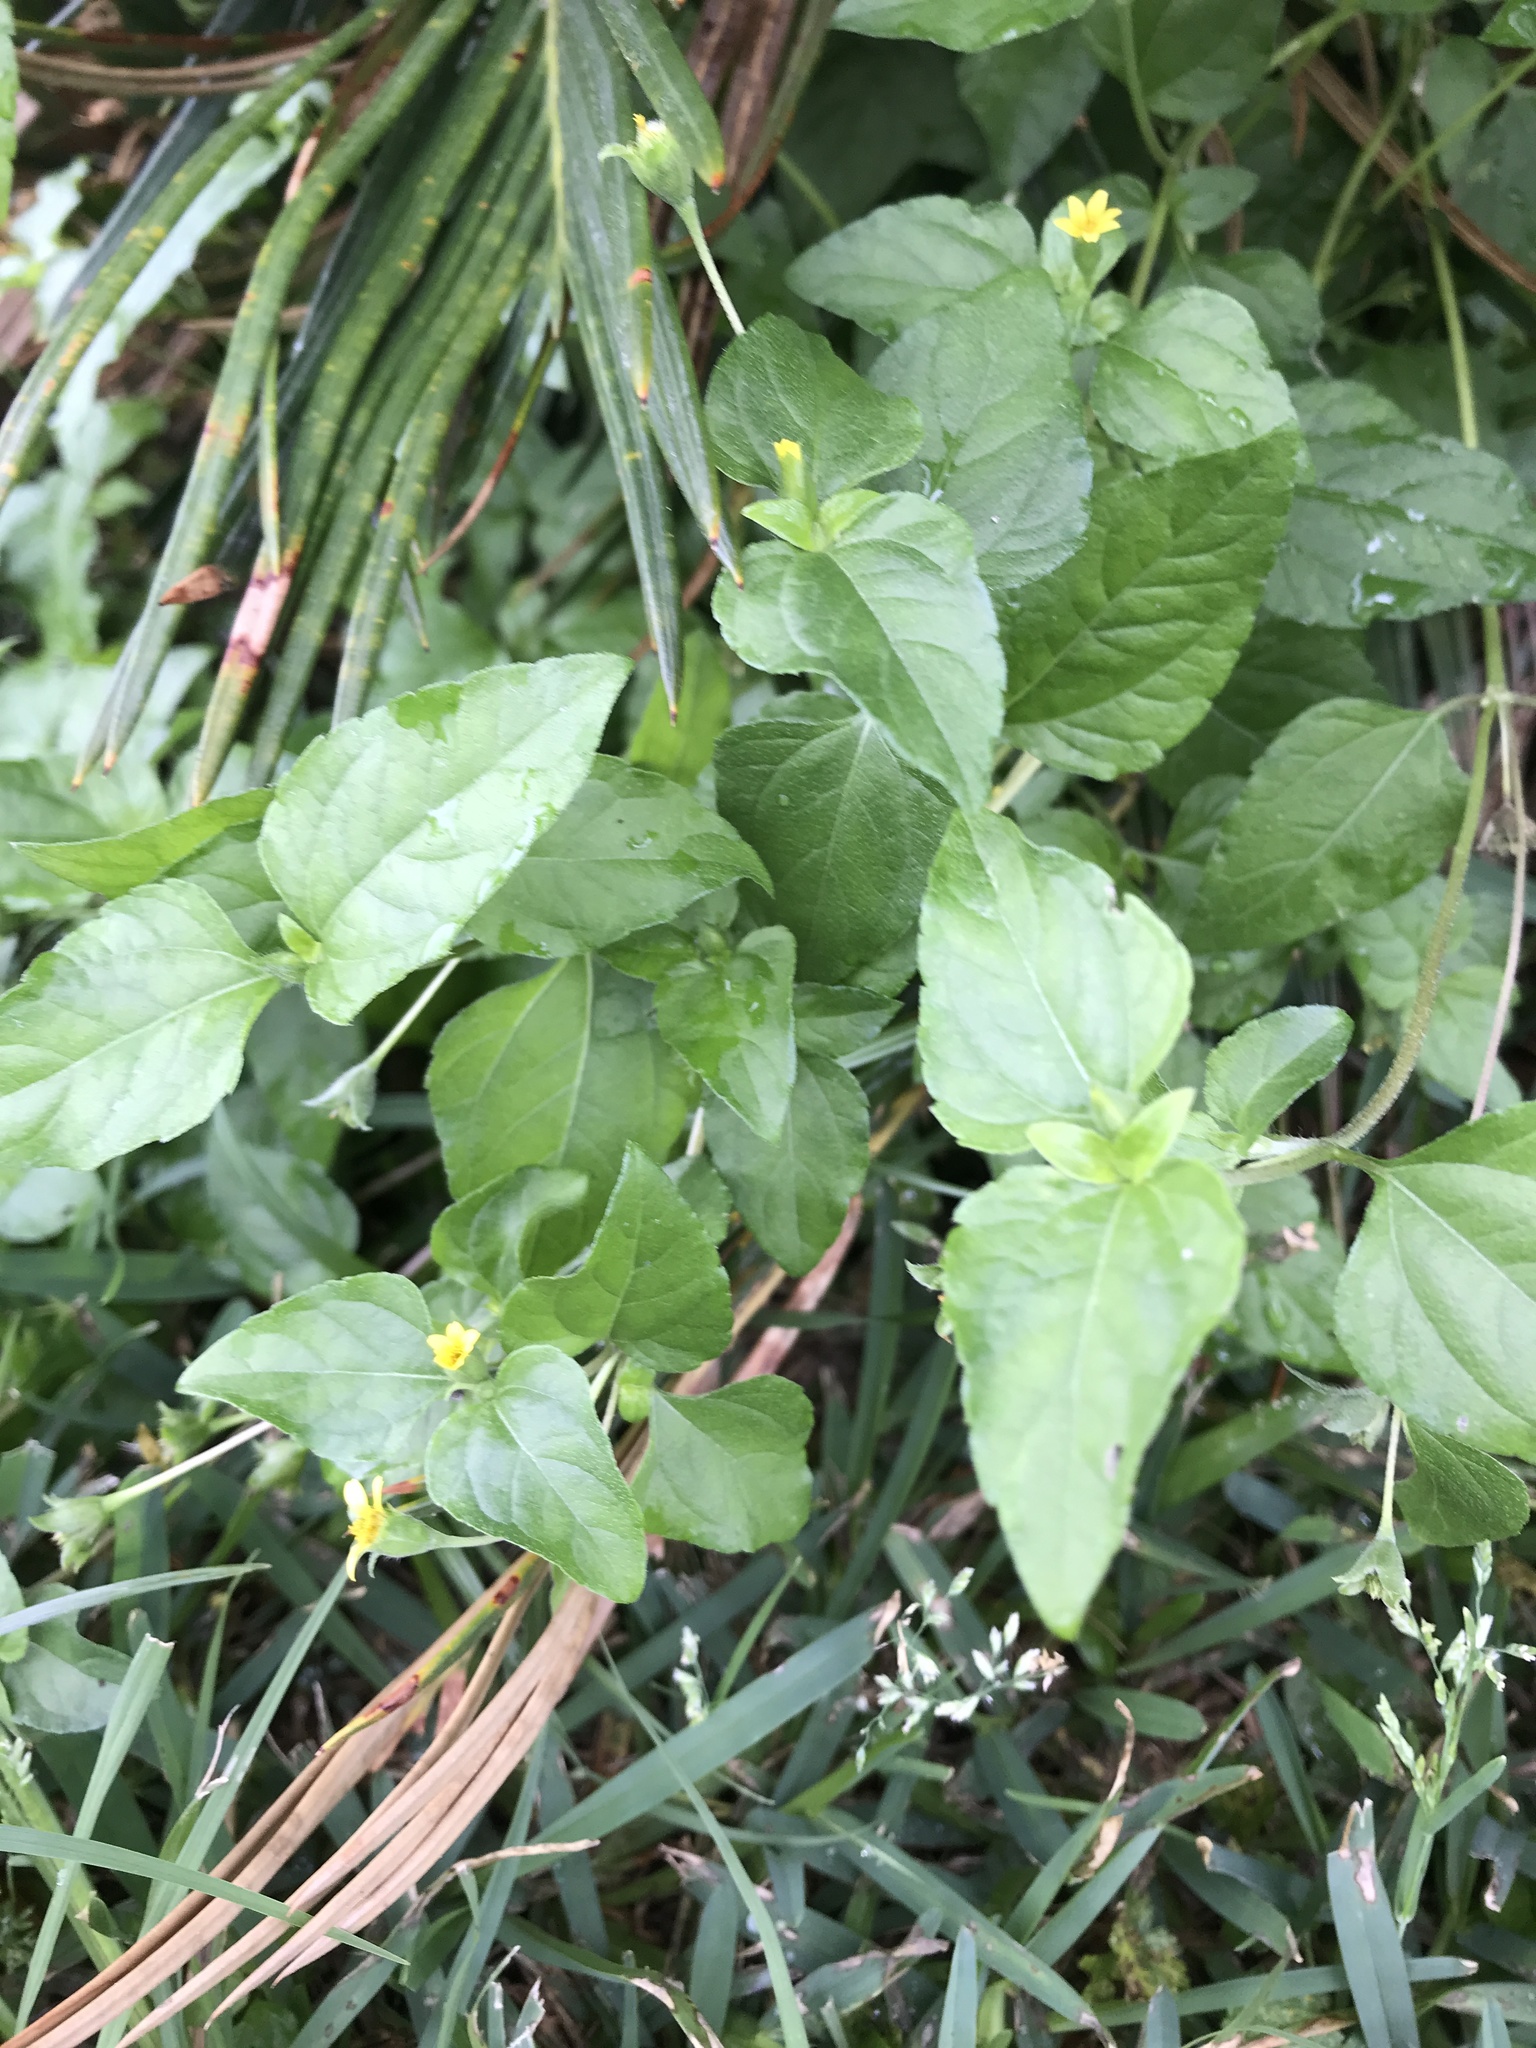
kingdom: Plantae
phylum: Tracheophyta
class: Magnoliopsida
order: Asterales
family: Asteraceae
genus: Calyptocarpus
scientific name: Calyptocarpus vialis
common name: Straggler daisy
